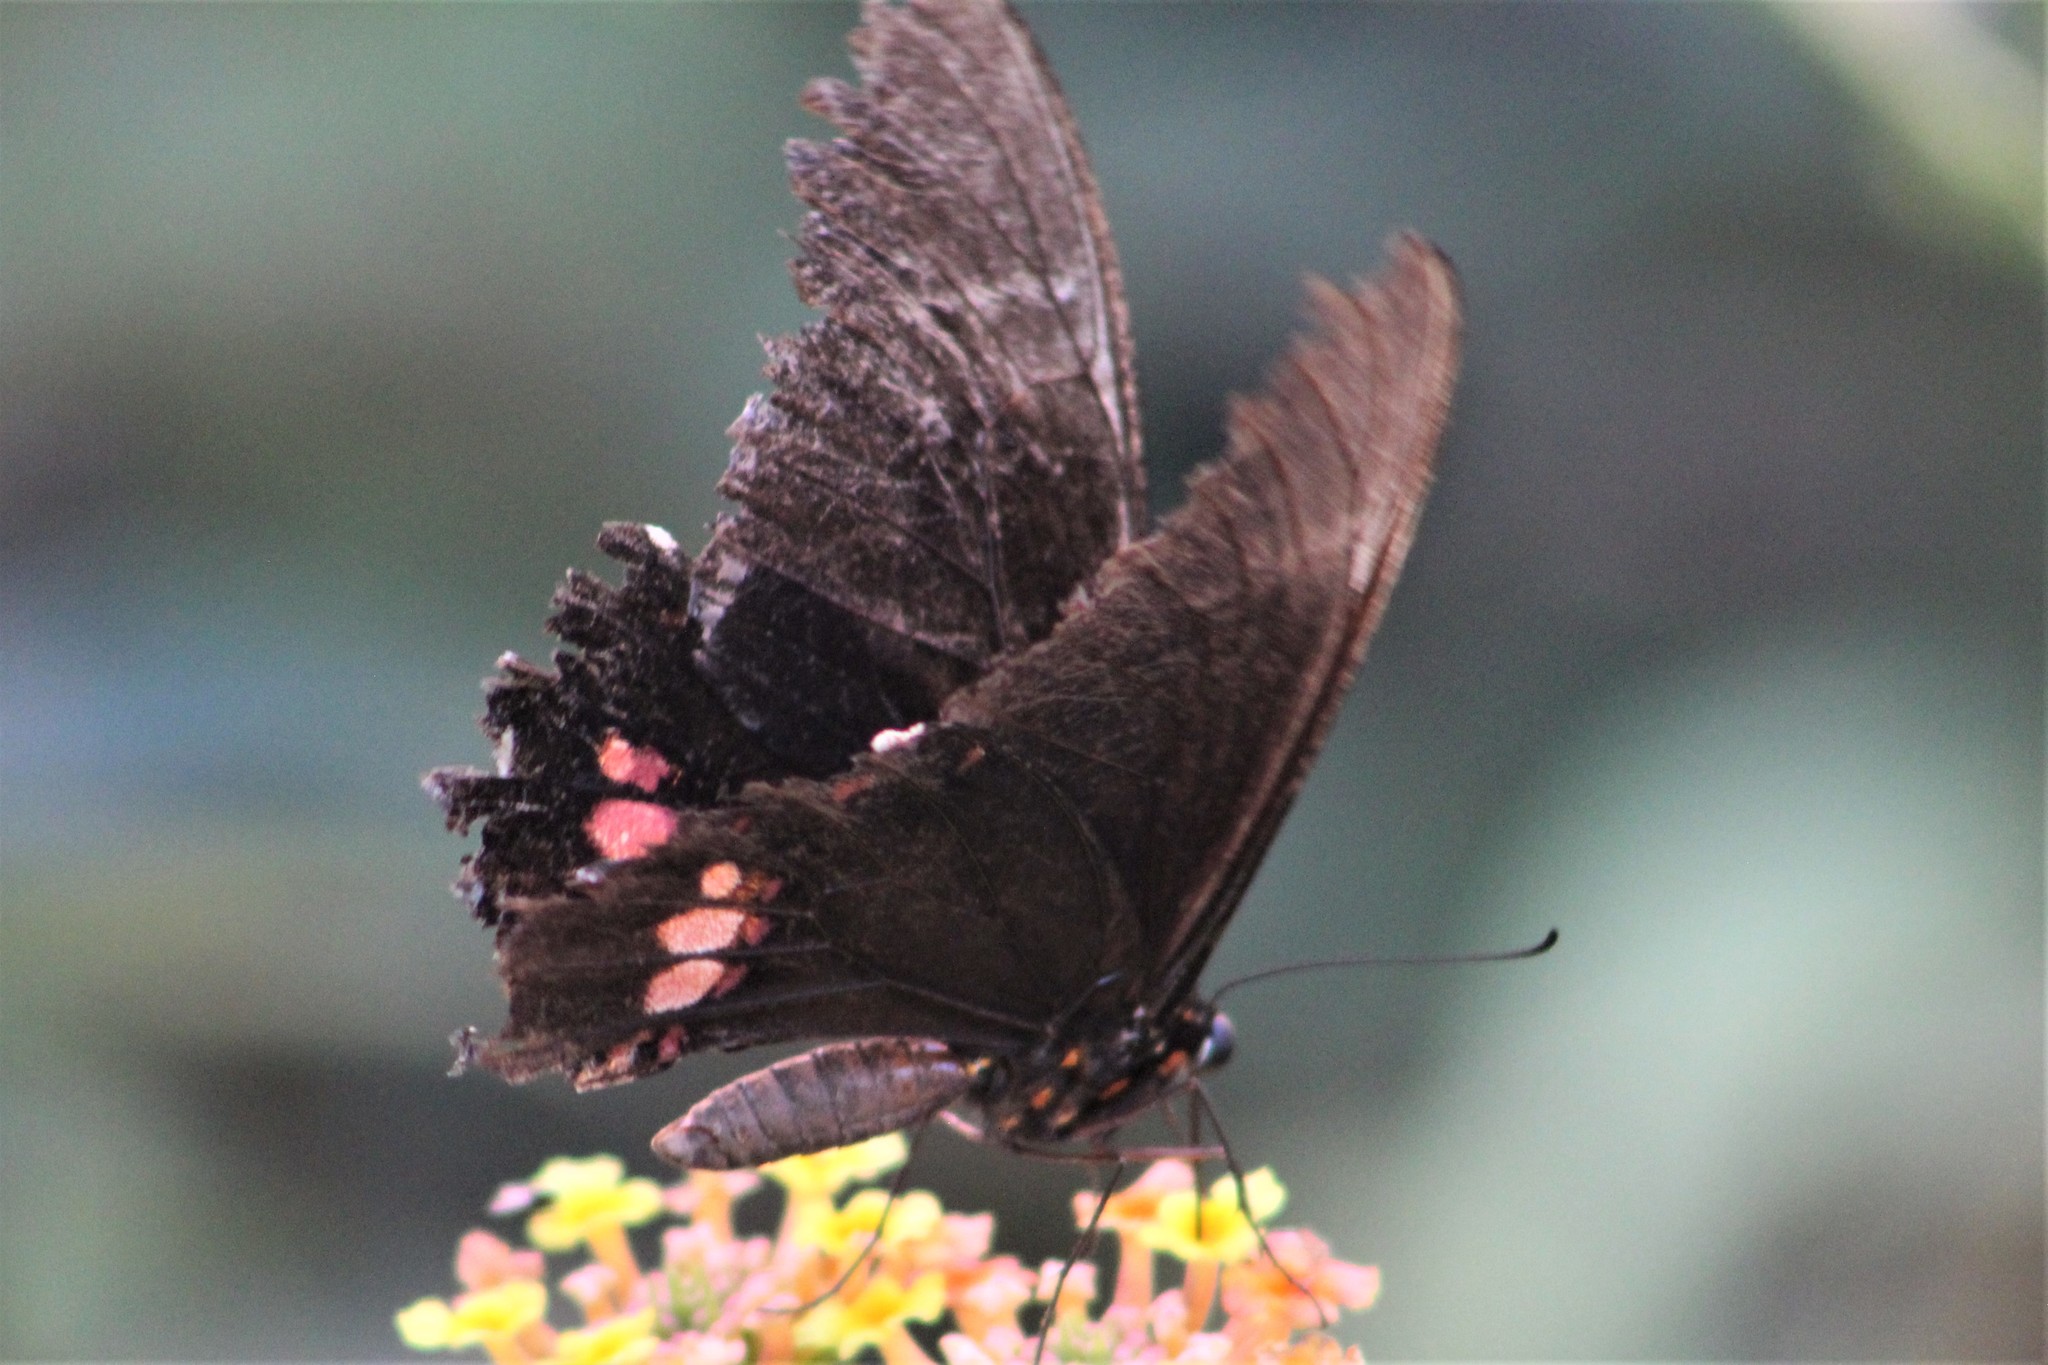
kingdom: Animalia
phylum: Arthropoda
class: Insecta
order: Lepidoptera
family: Papilionidae
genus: Papilio
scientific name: Papilio anchisiades
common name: Idaes swallowtail
